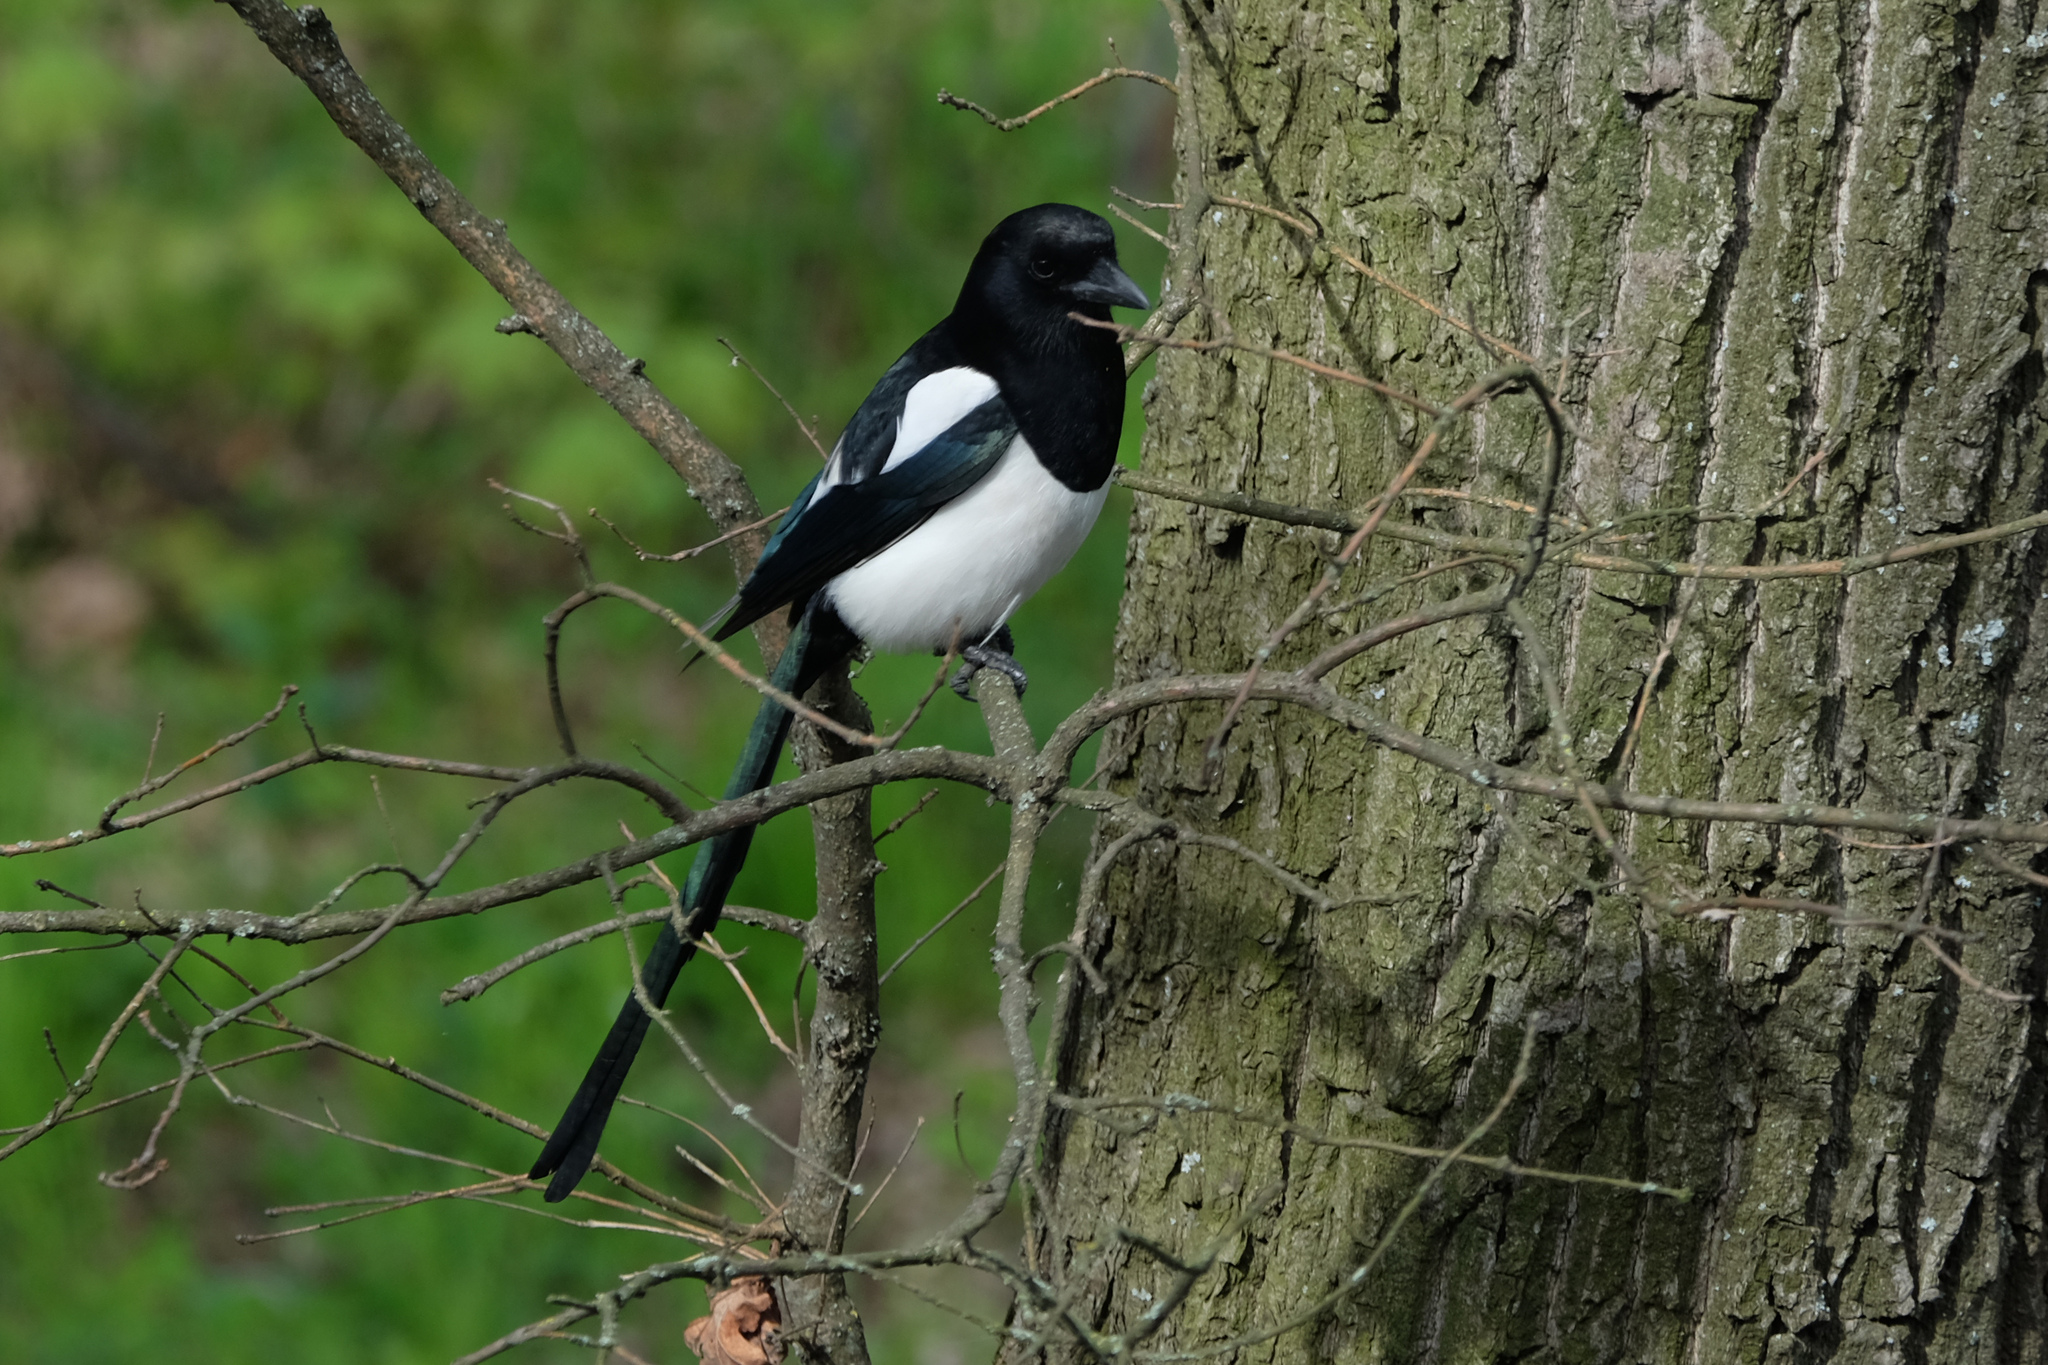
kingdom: Animalia
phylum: Chordata
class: Aves
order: Passeriformes
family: Corvidae
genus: Pica
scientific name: Pica pica
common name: Eurasian magpie
